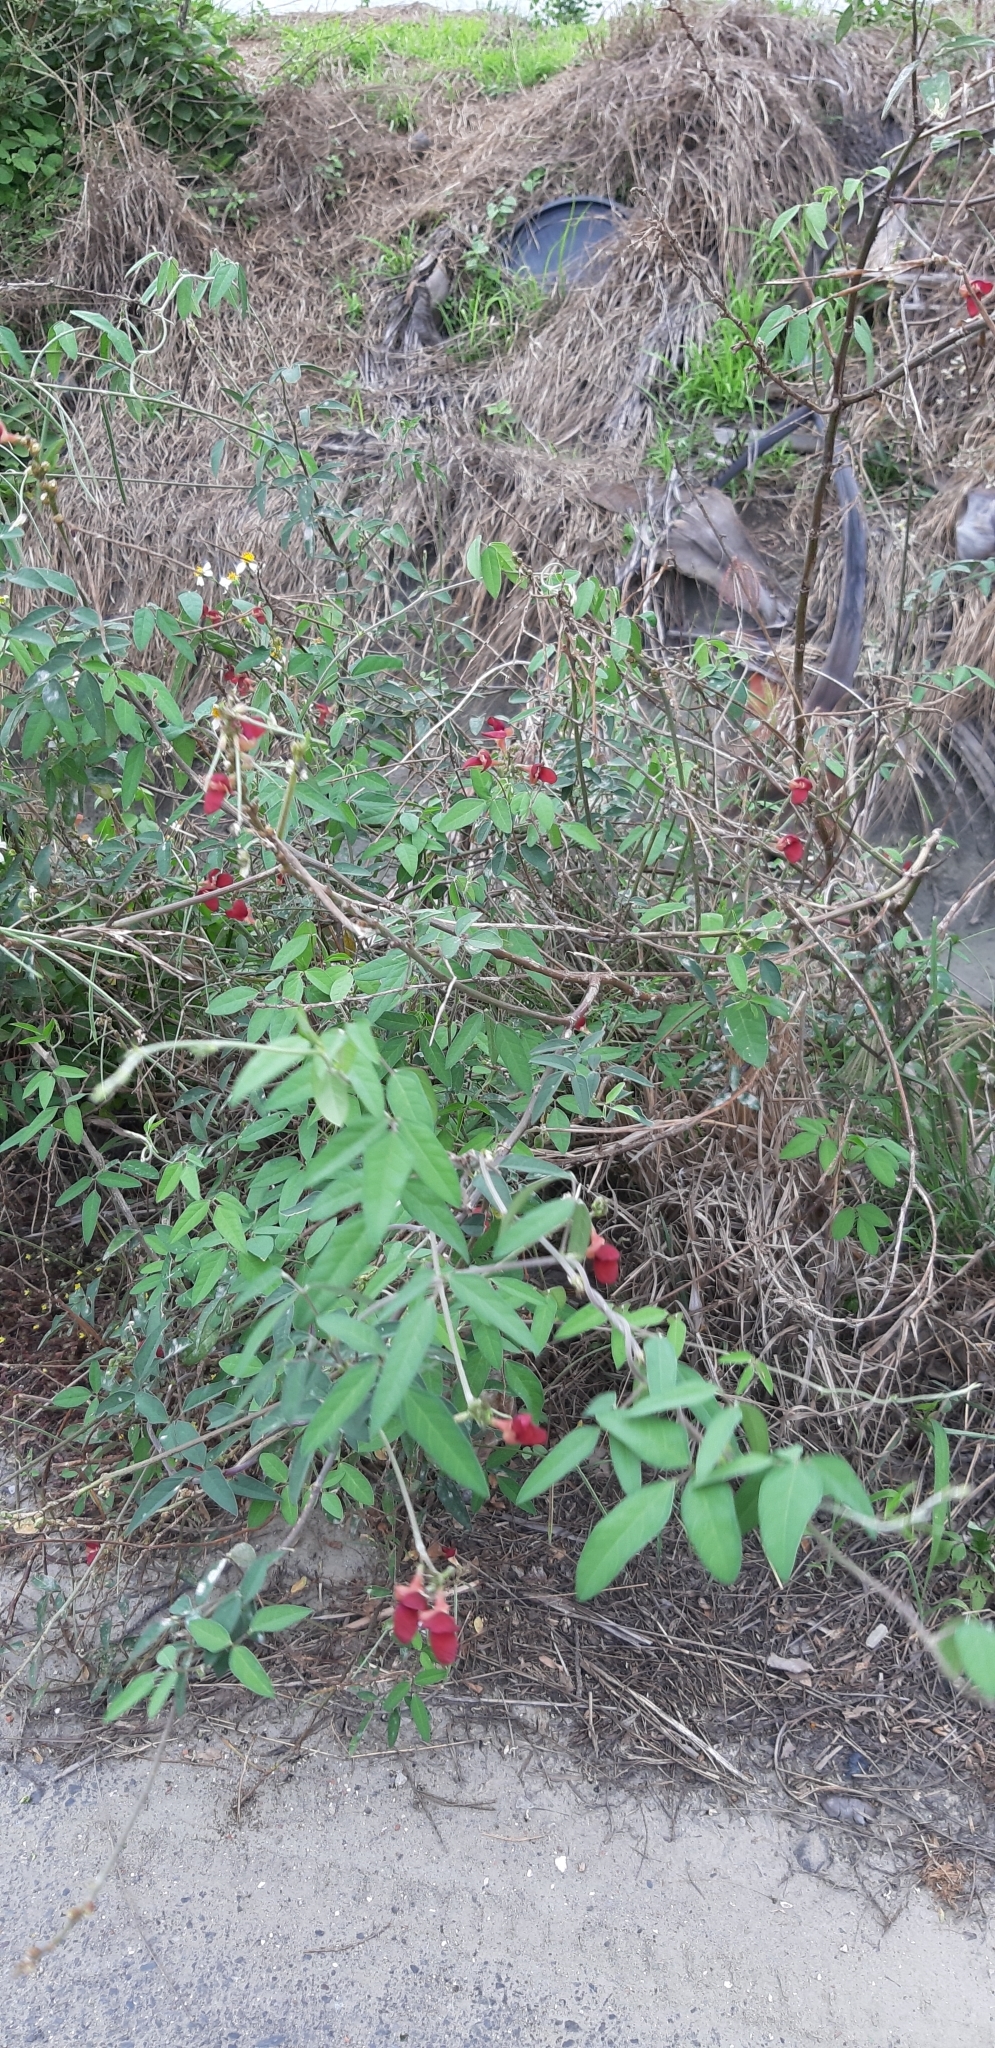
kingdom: Plantae
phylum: Tracheophyta
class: Magnoliopsida
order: Fabales
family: Fabaceae
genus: Macroptilium
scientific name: Macroptilium lathyroides
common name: Wild bushbean
